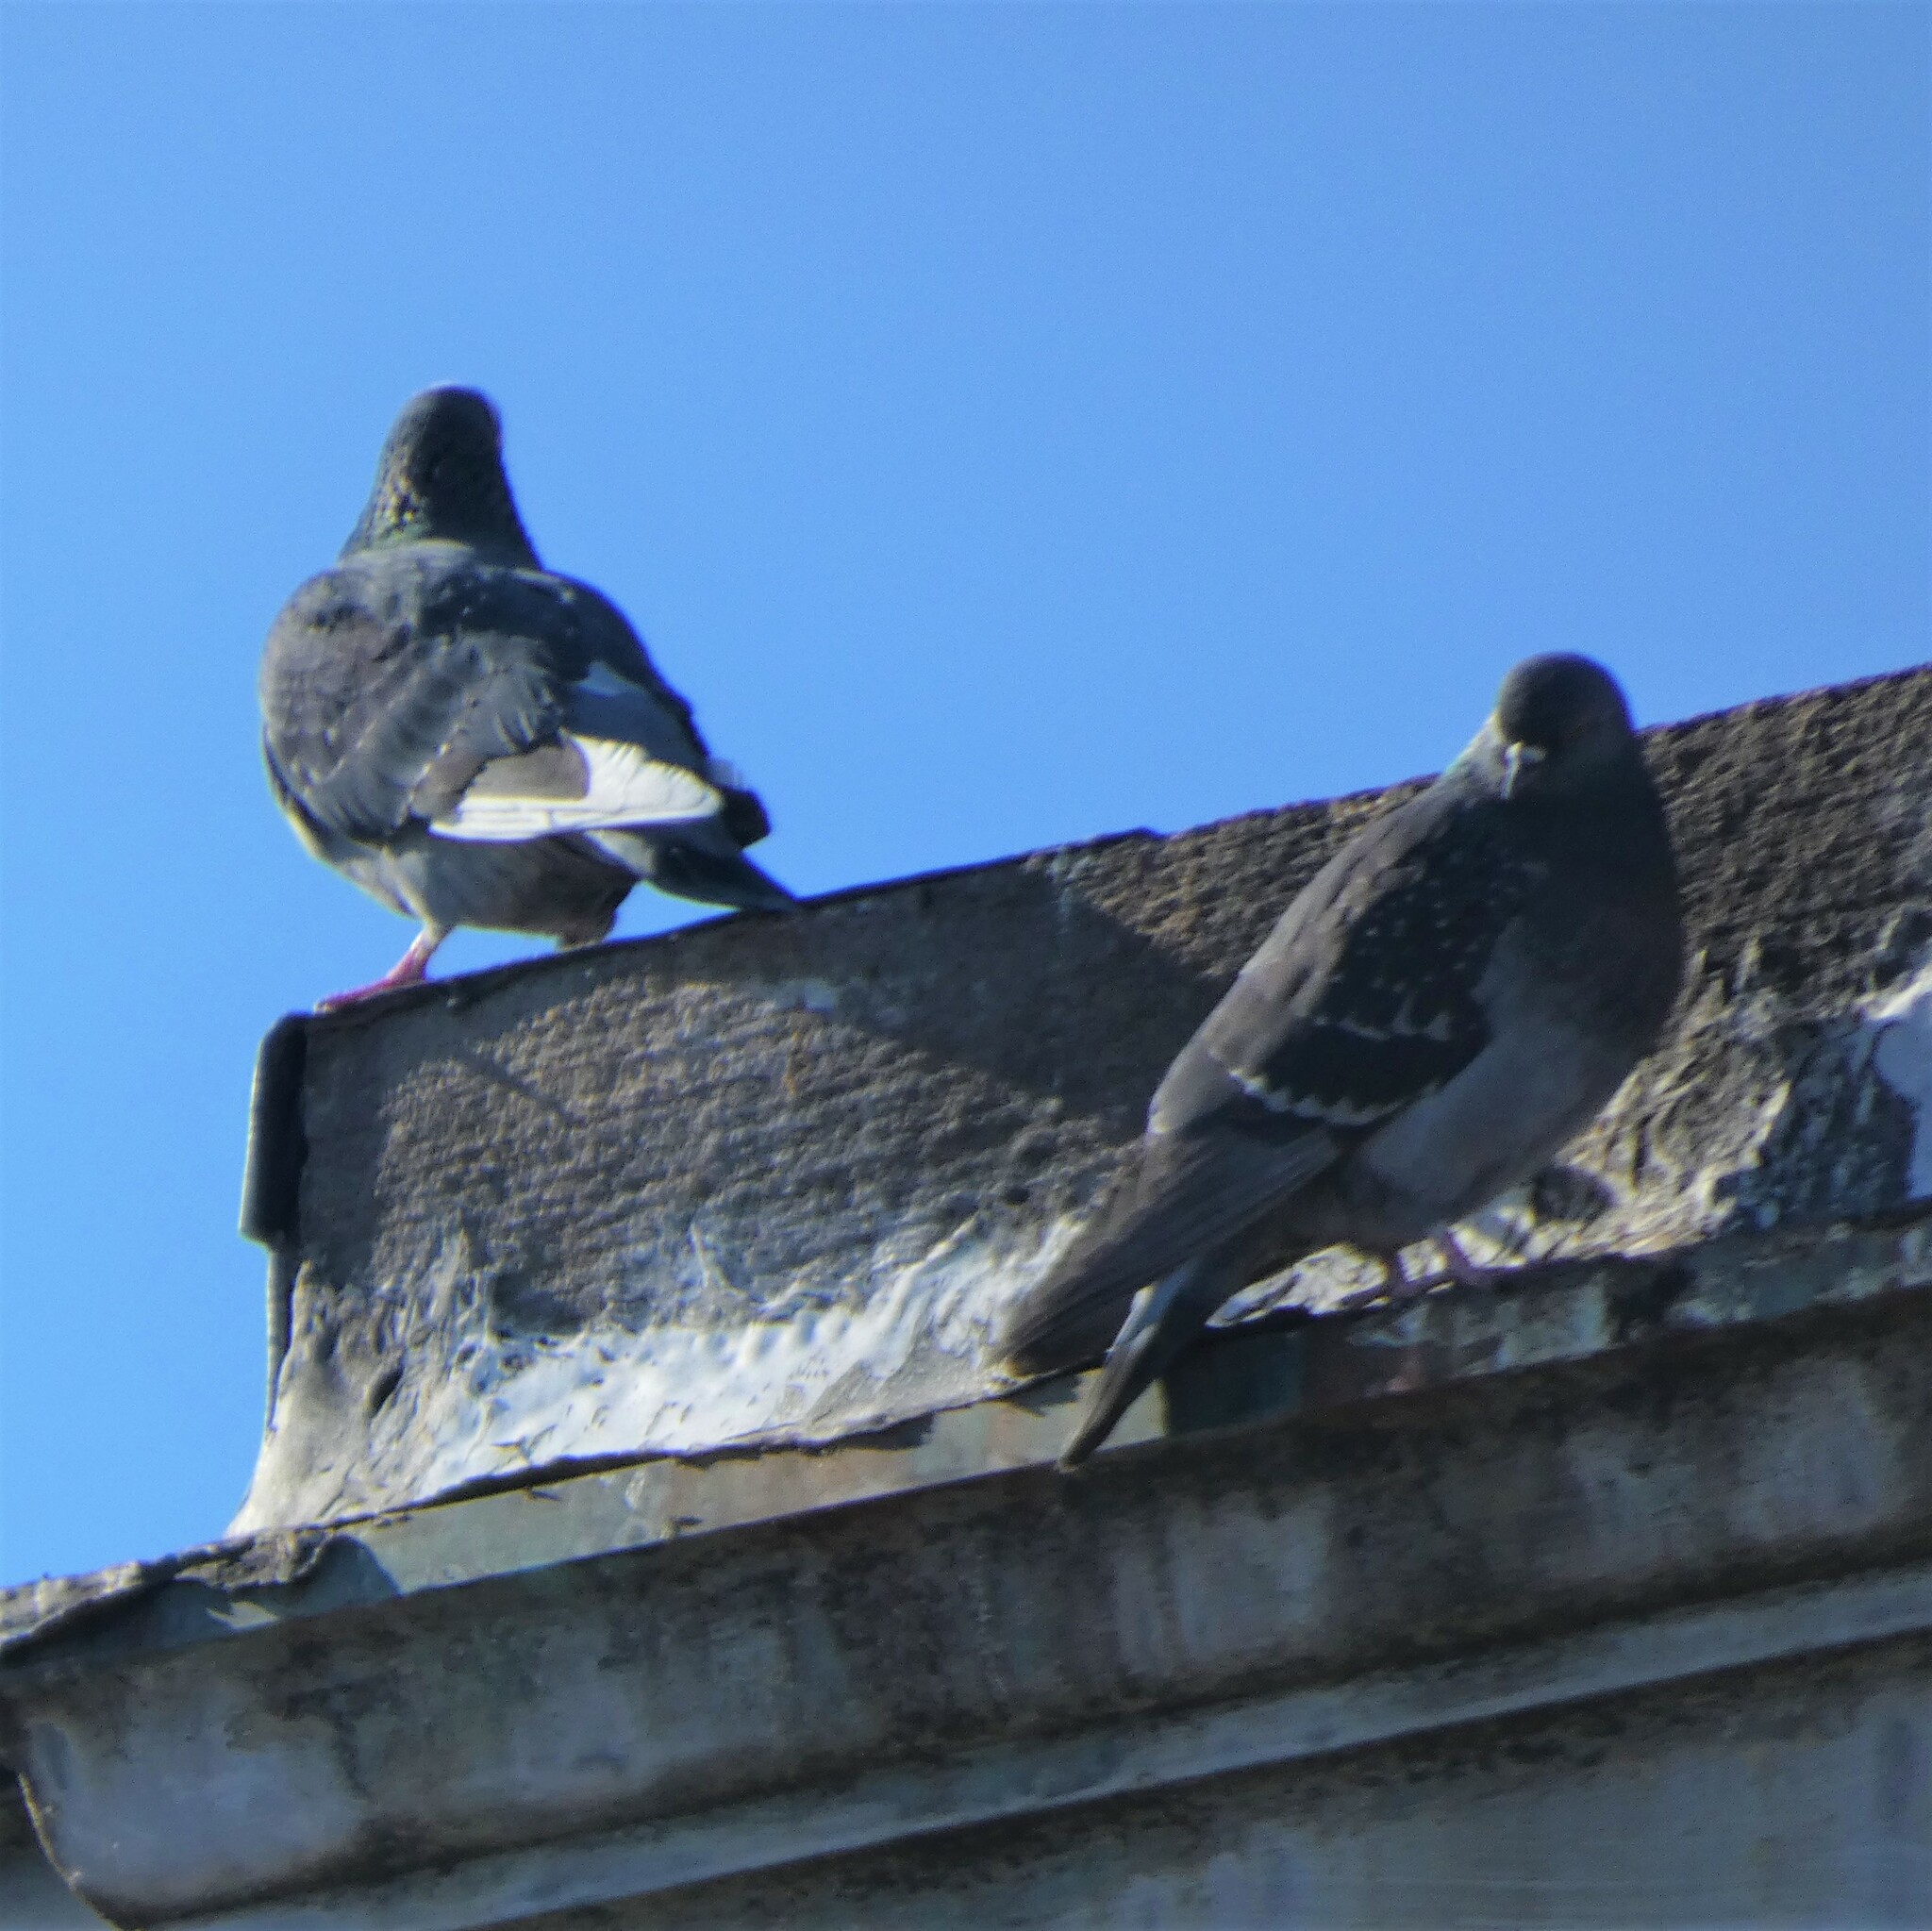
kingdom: Animalia
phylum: Chordata
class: Aves
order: Columbiformes
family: Columbidae
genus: Columba
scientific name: Columba livia
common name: Rock pigeon
